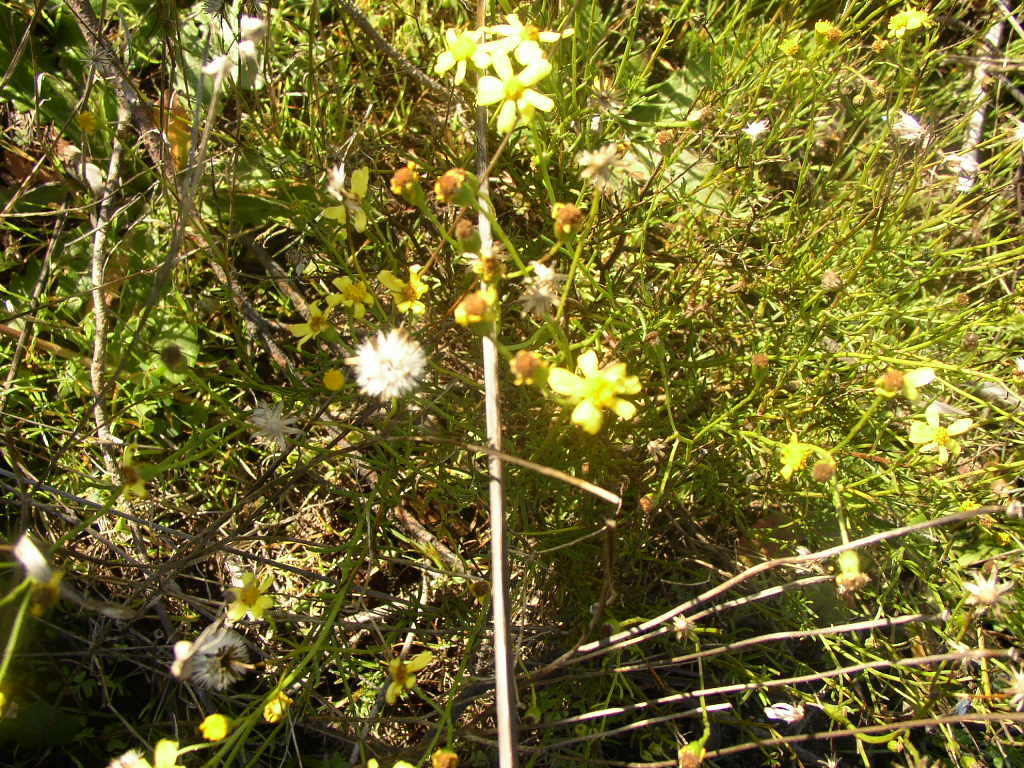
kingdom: Plantae
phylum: Tracheophyta
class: Magnoliopsida
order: Asterales
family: Asteraceae
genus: Senecio
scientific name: Senecio burchellii
